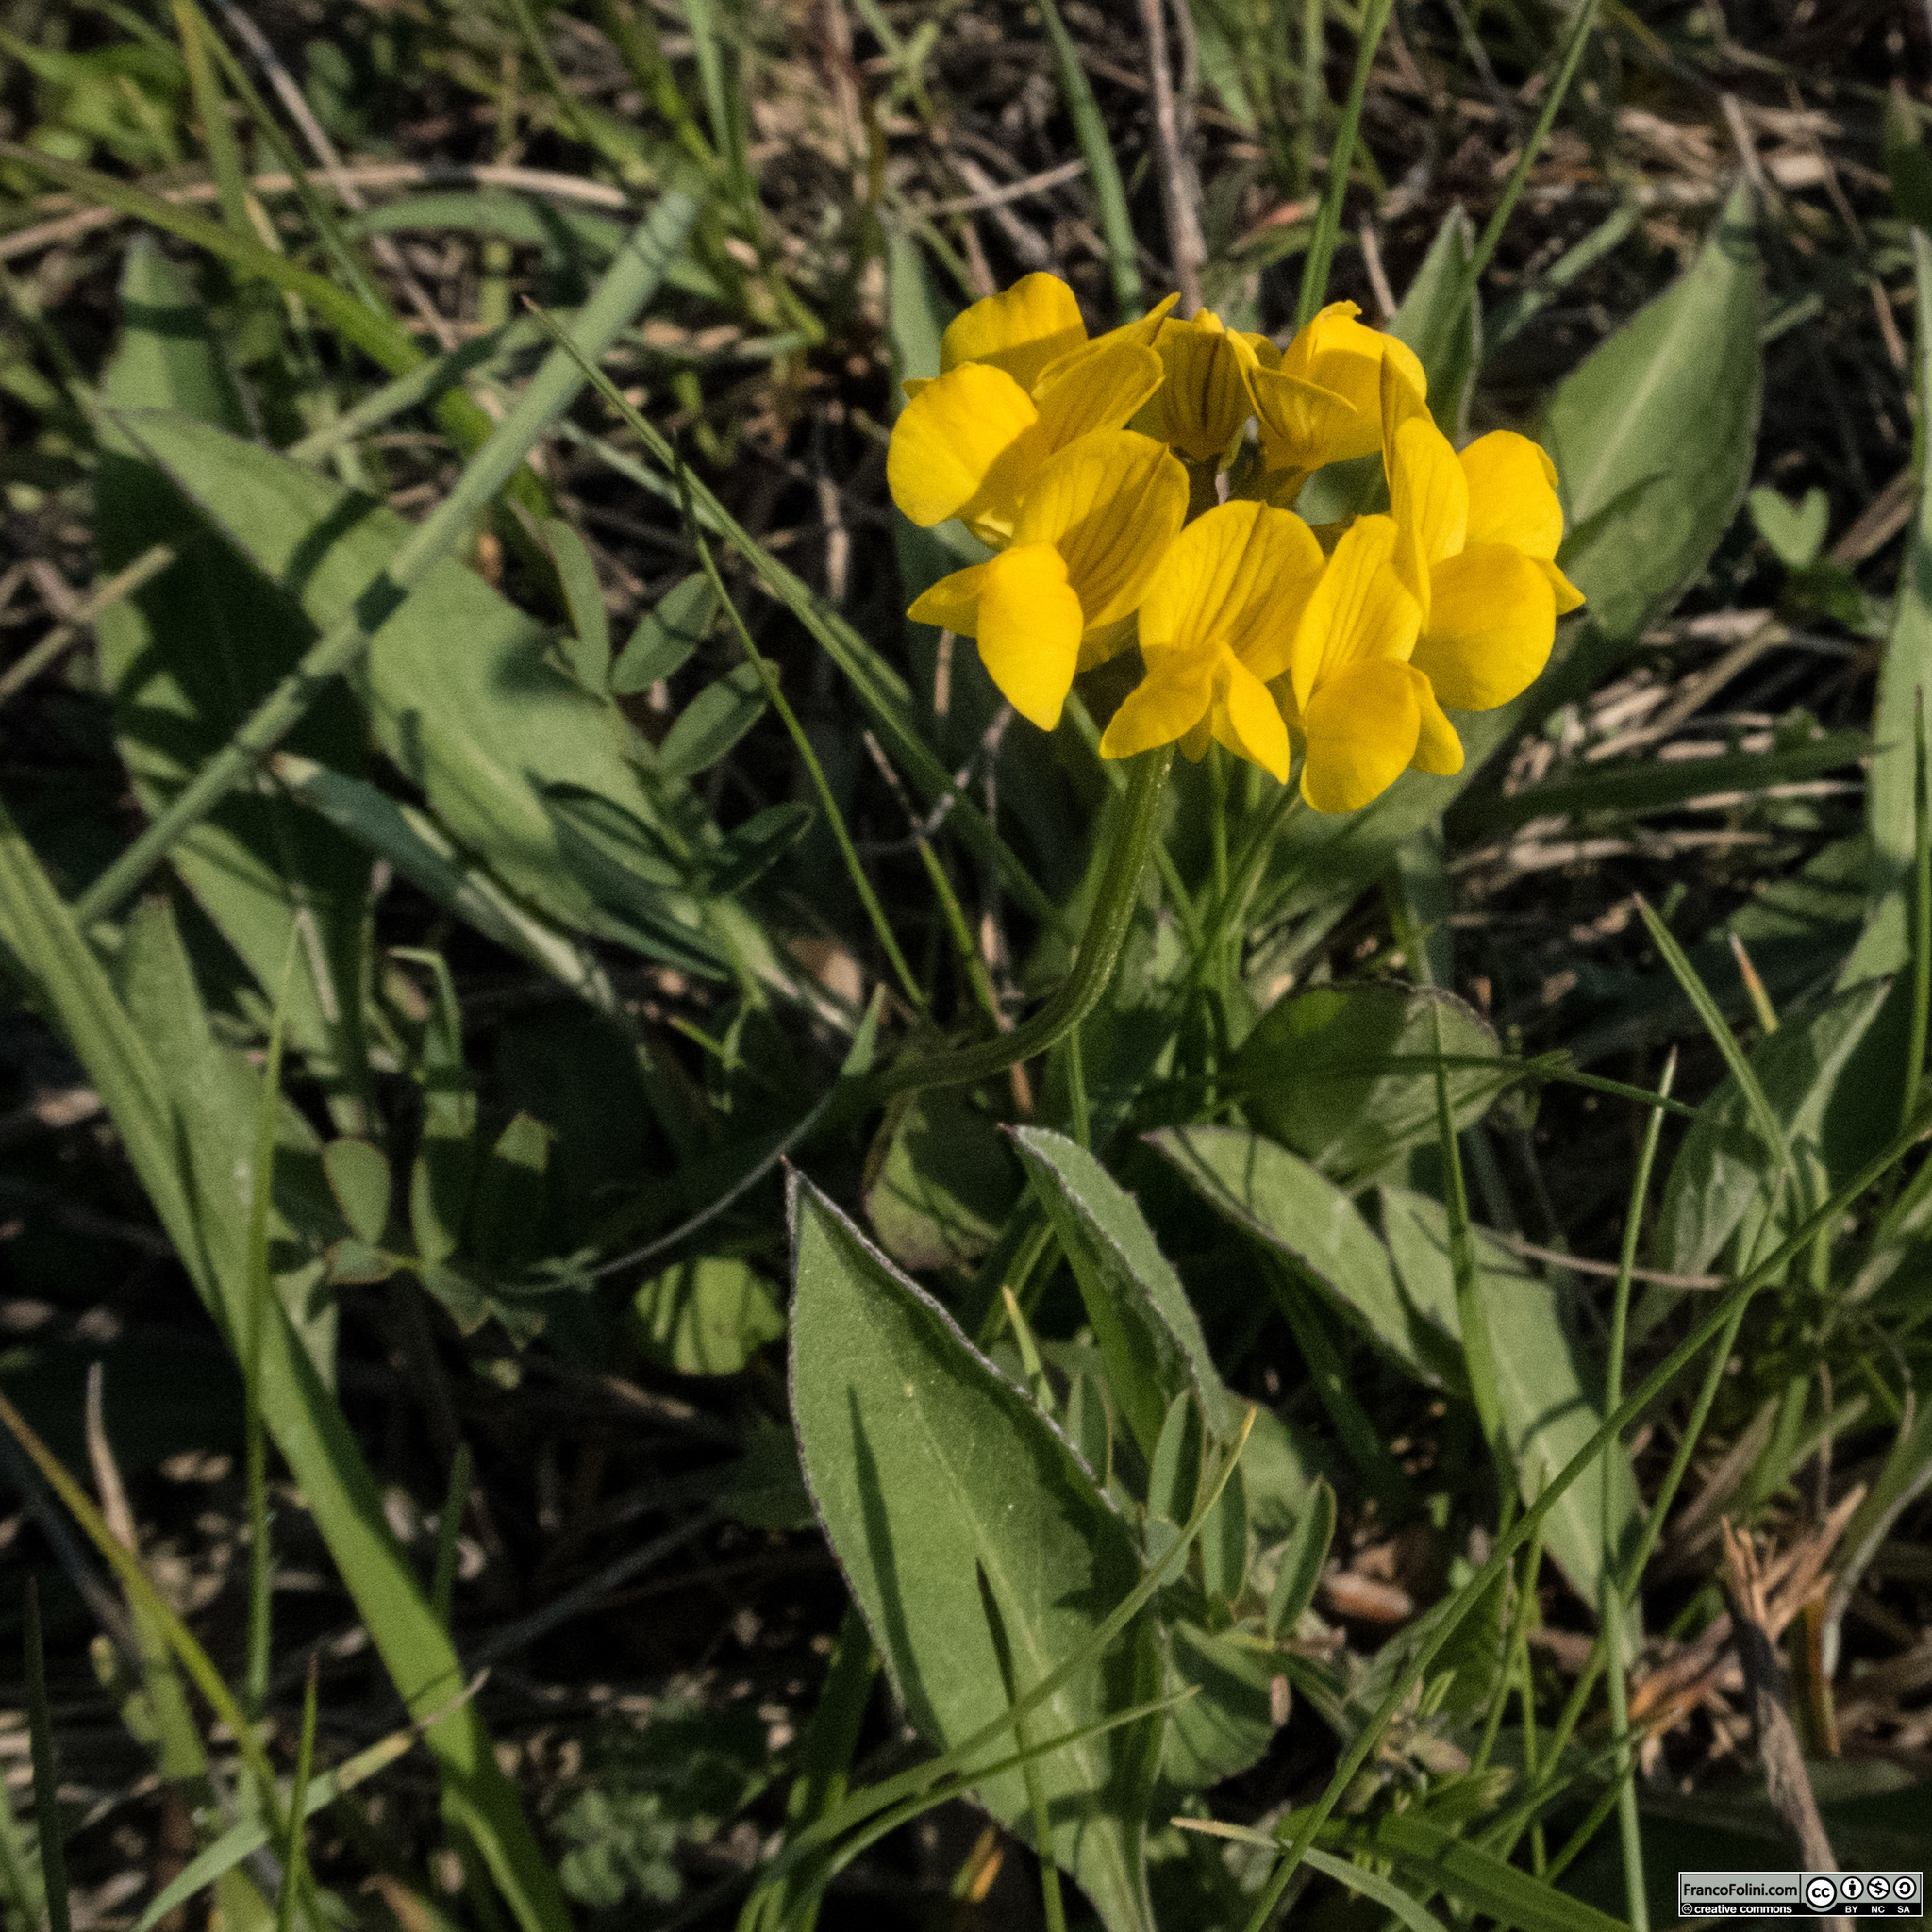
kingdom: Plantae
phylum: Tracheophyta
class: Magnoliopsida
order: Fabales
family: Fabaceae
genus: Hippocrepis
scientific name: Hippocrepis comosa
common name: Horseshoe vetch
